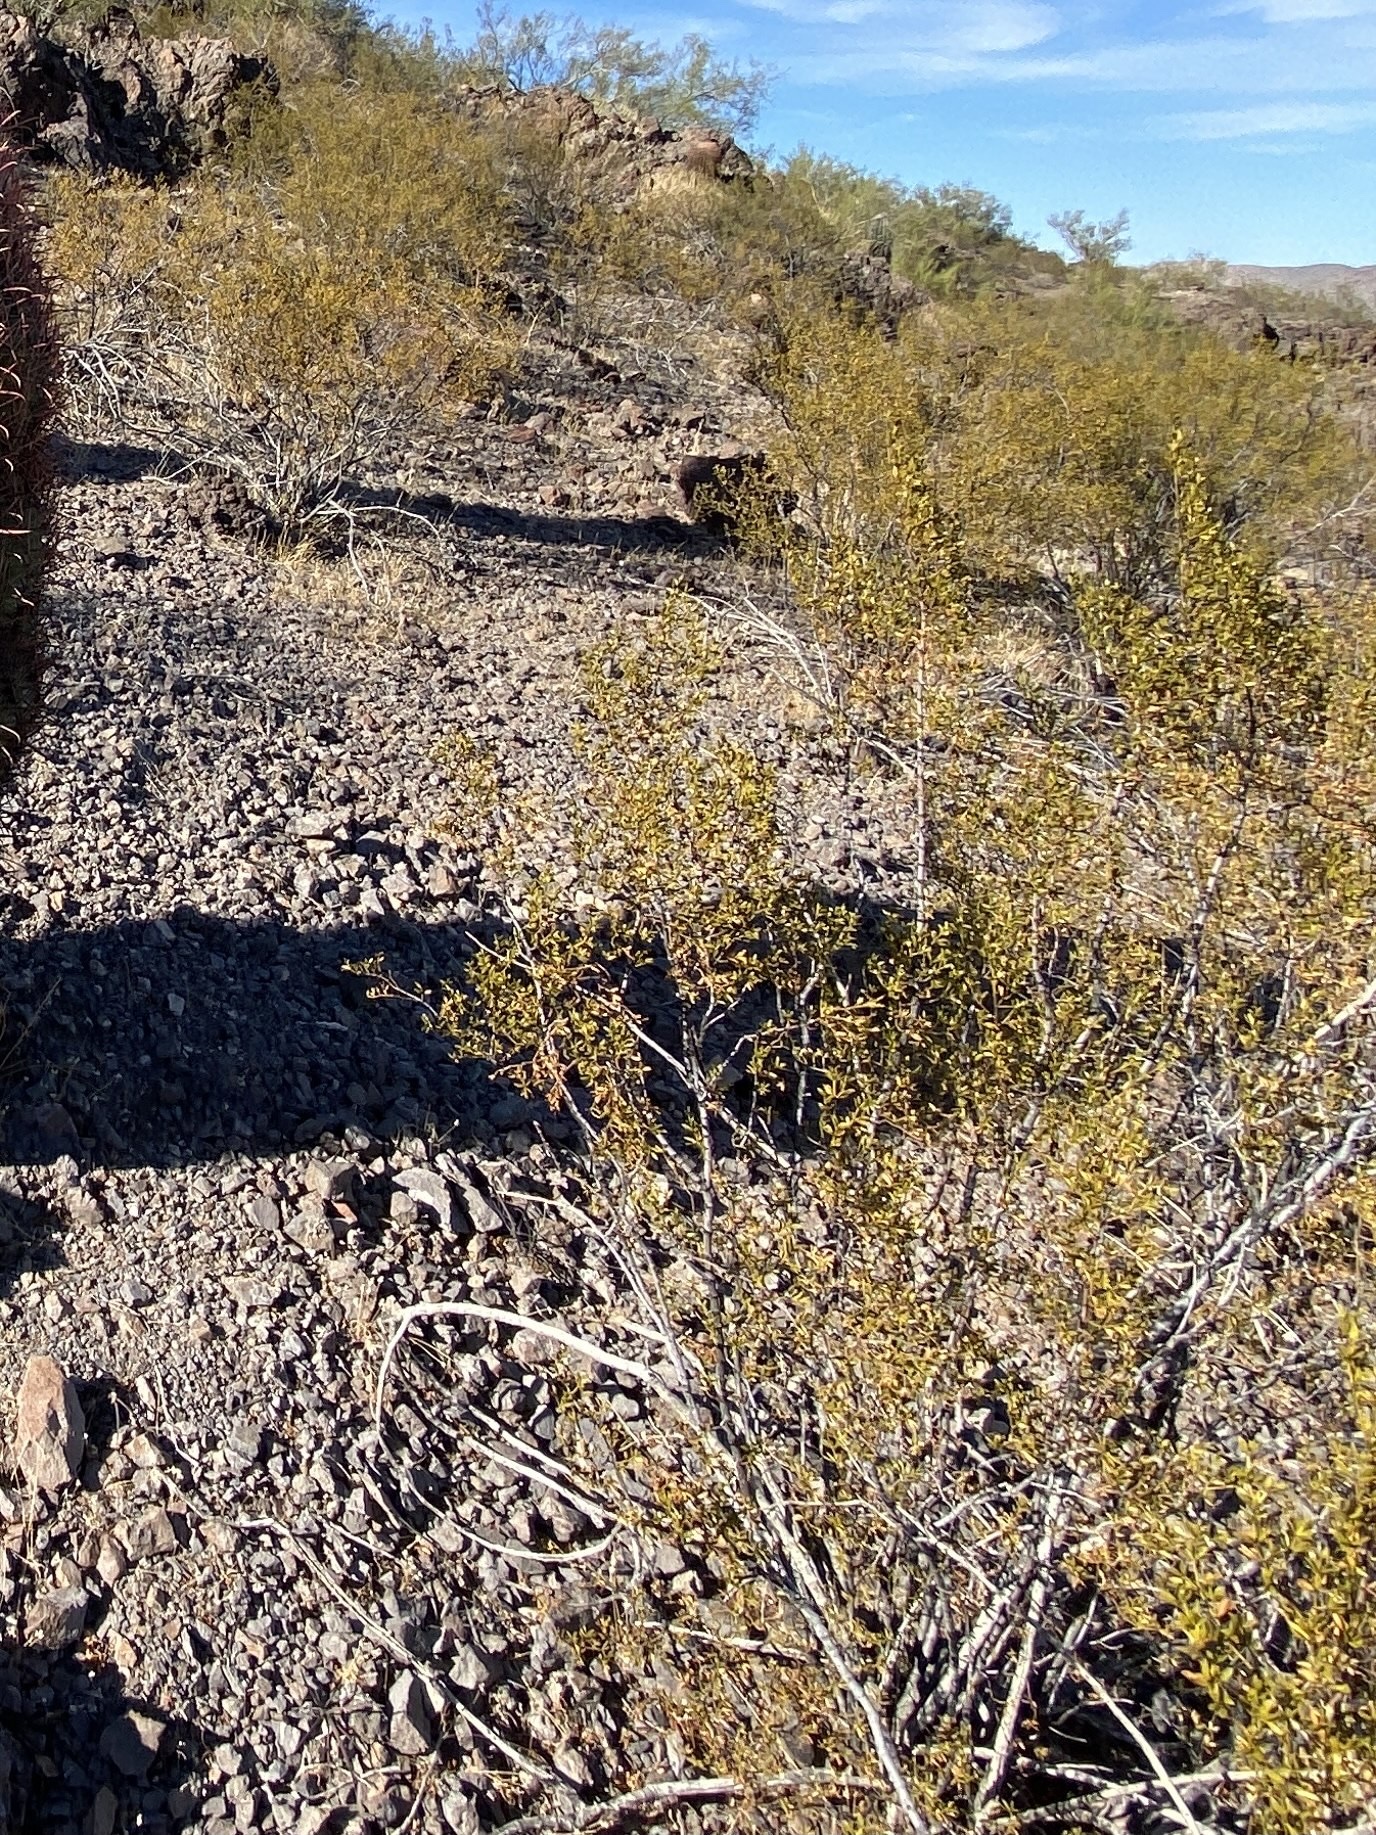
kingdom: Plantae
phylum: Tracheophyta
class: Magnoliopsida
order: Zygophyllales
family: Zygophyllaceae
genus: Larrea
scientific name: Larrea tridentata
